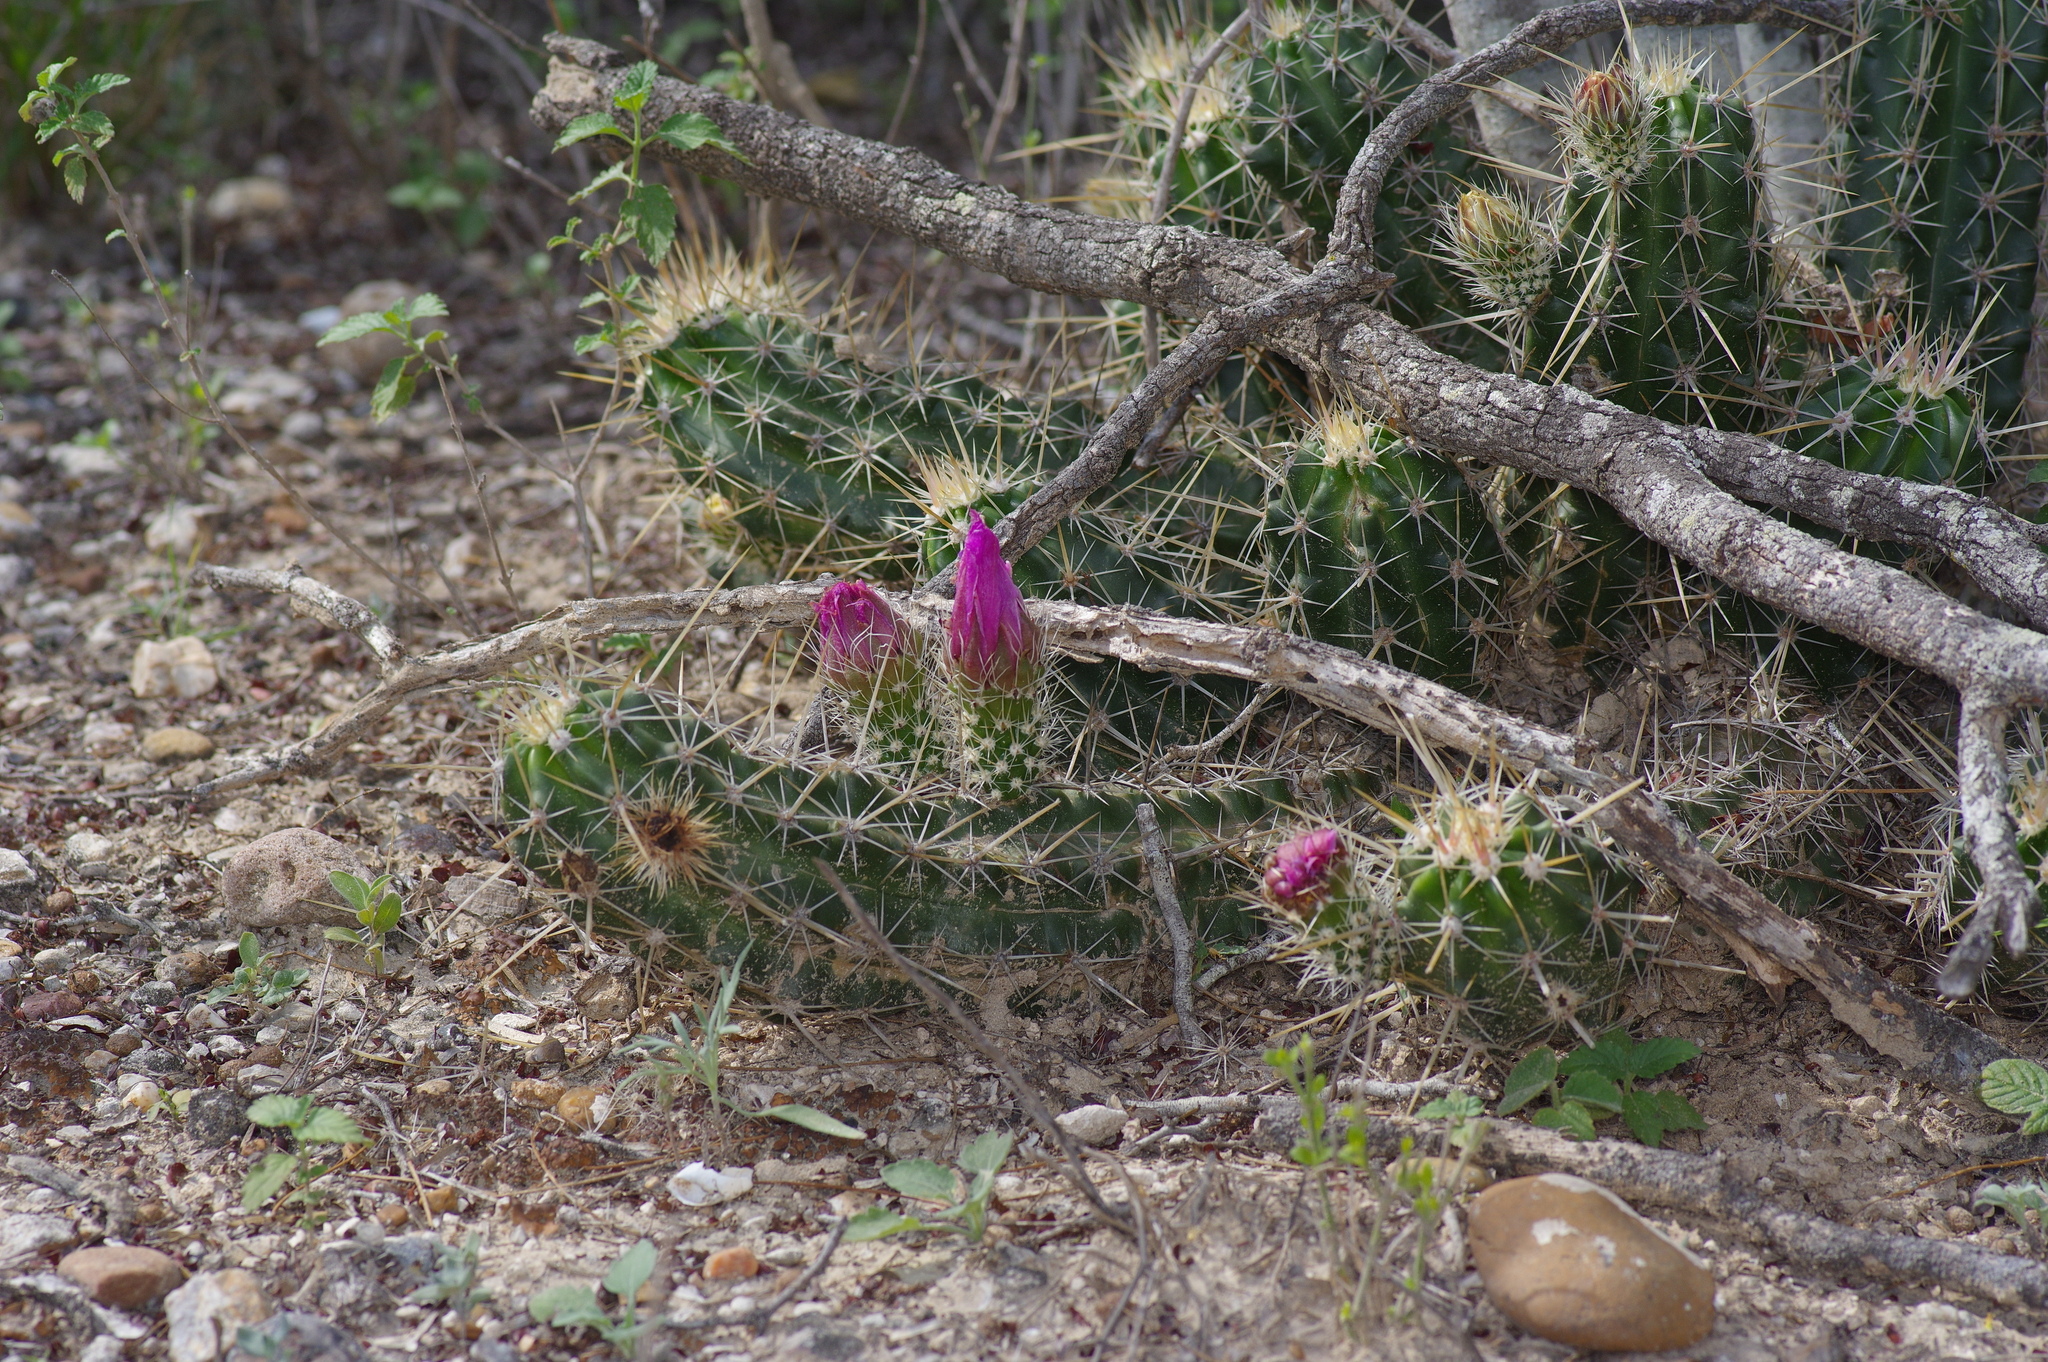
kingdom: Plantae
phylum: Tracheophyta
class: Magnoliopsida
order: Caryophyllales
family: Cactaceae
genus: Echinocereus
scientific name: Echinocereus enneacanthus
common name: Pitaya
